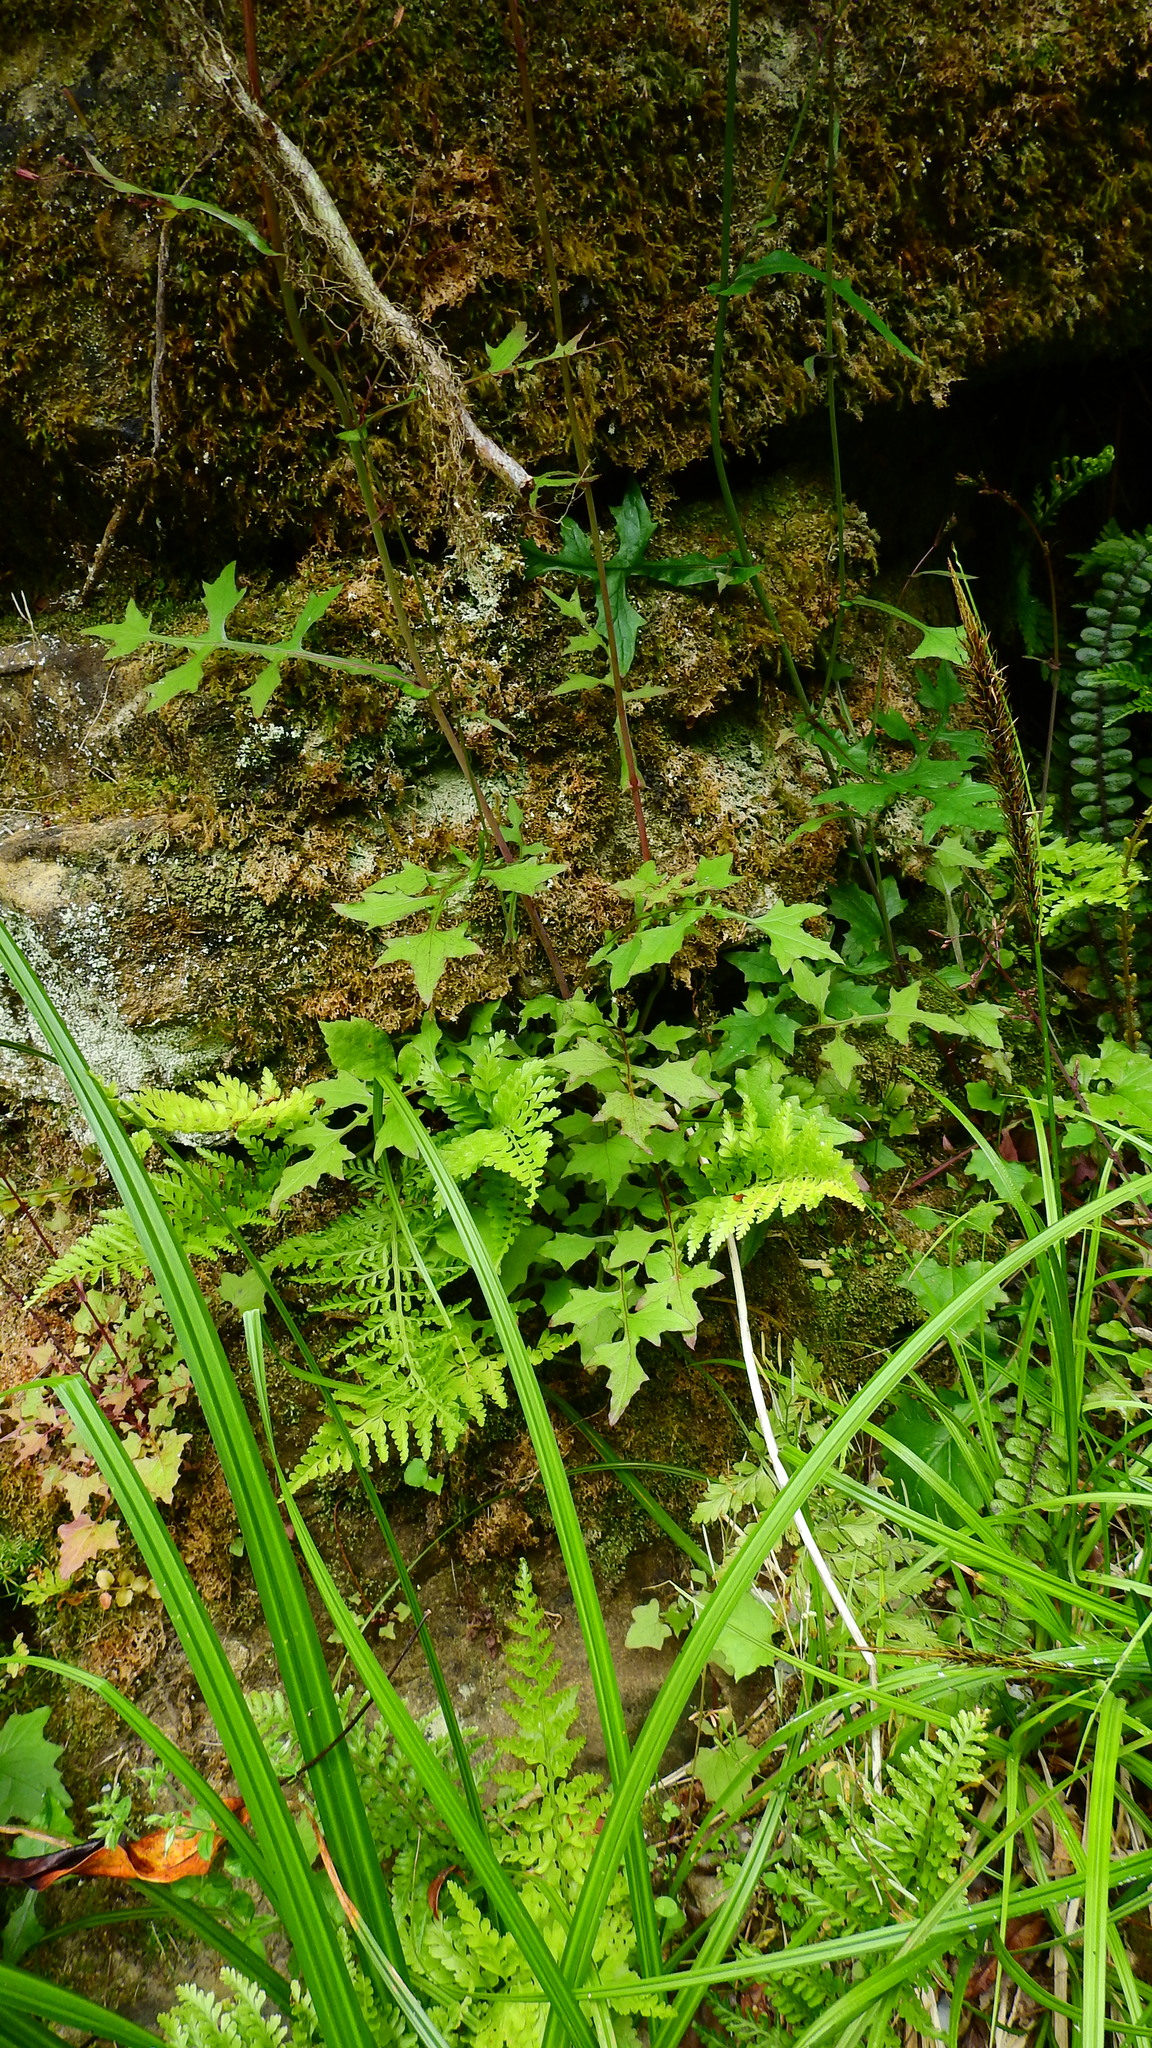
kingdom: Plantae
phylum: Tracheophyta
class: Magnoliopsida
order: Asterales
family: Asteraceae
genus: Mycelis
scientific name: Mycelis muralis
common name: Wall lettuce
